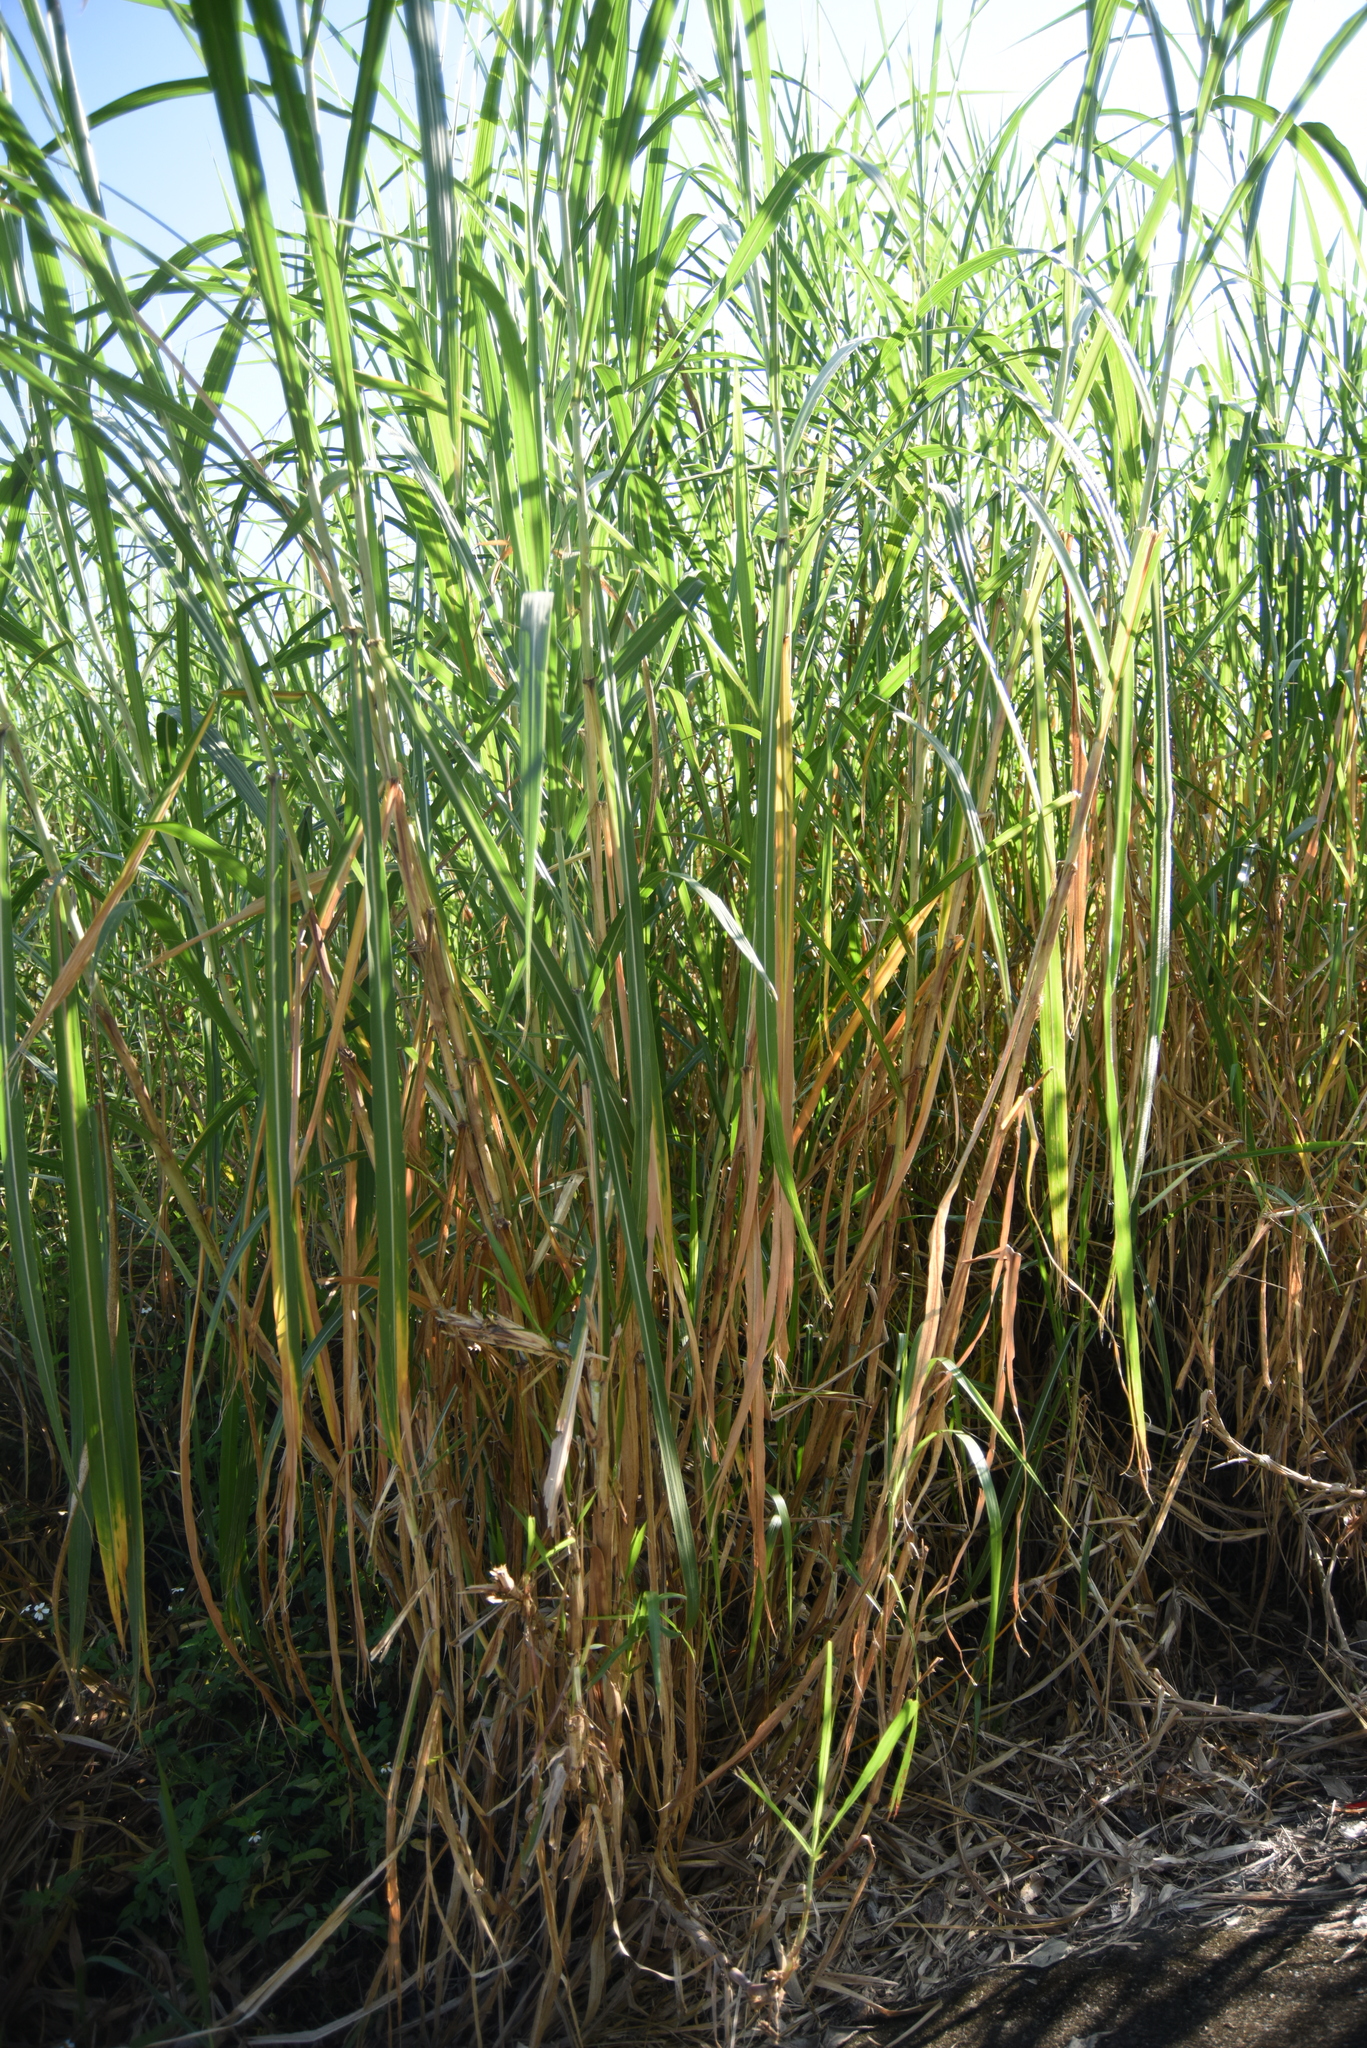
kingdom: Plantae
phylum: Tracheophyta
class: Liliopsida
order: Poales
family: Poaceae
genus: Cenchrus
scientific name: Cenchrus purpureus
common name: Elephant grass
